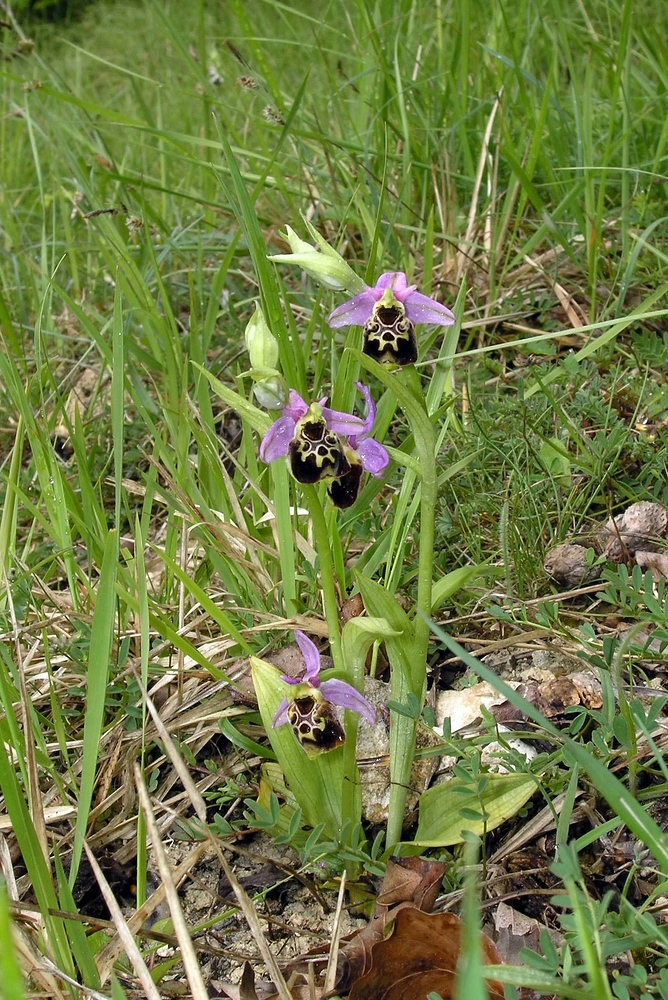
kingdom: Plantae
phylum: Tracheophyta
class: Liliopsida
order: Asparagales
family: Orchidaceae
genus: Ophrys
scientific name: Ophrys holosericea
